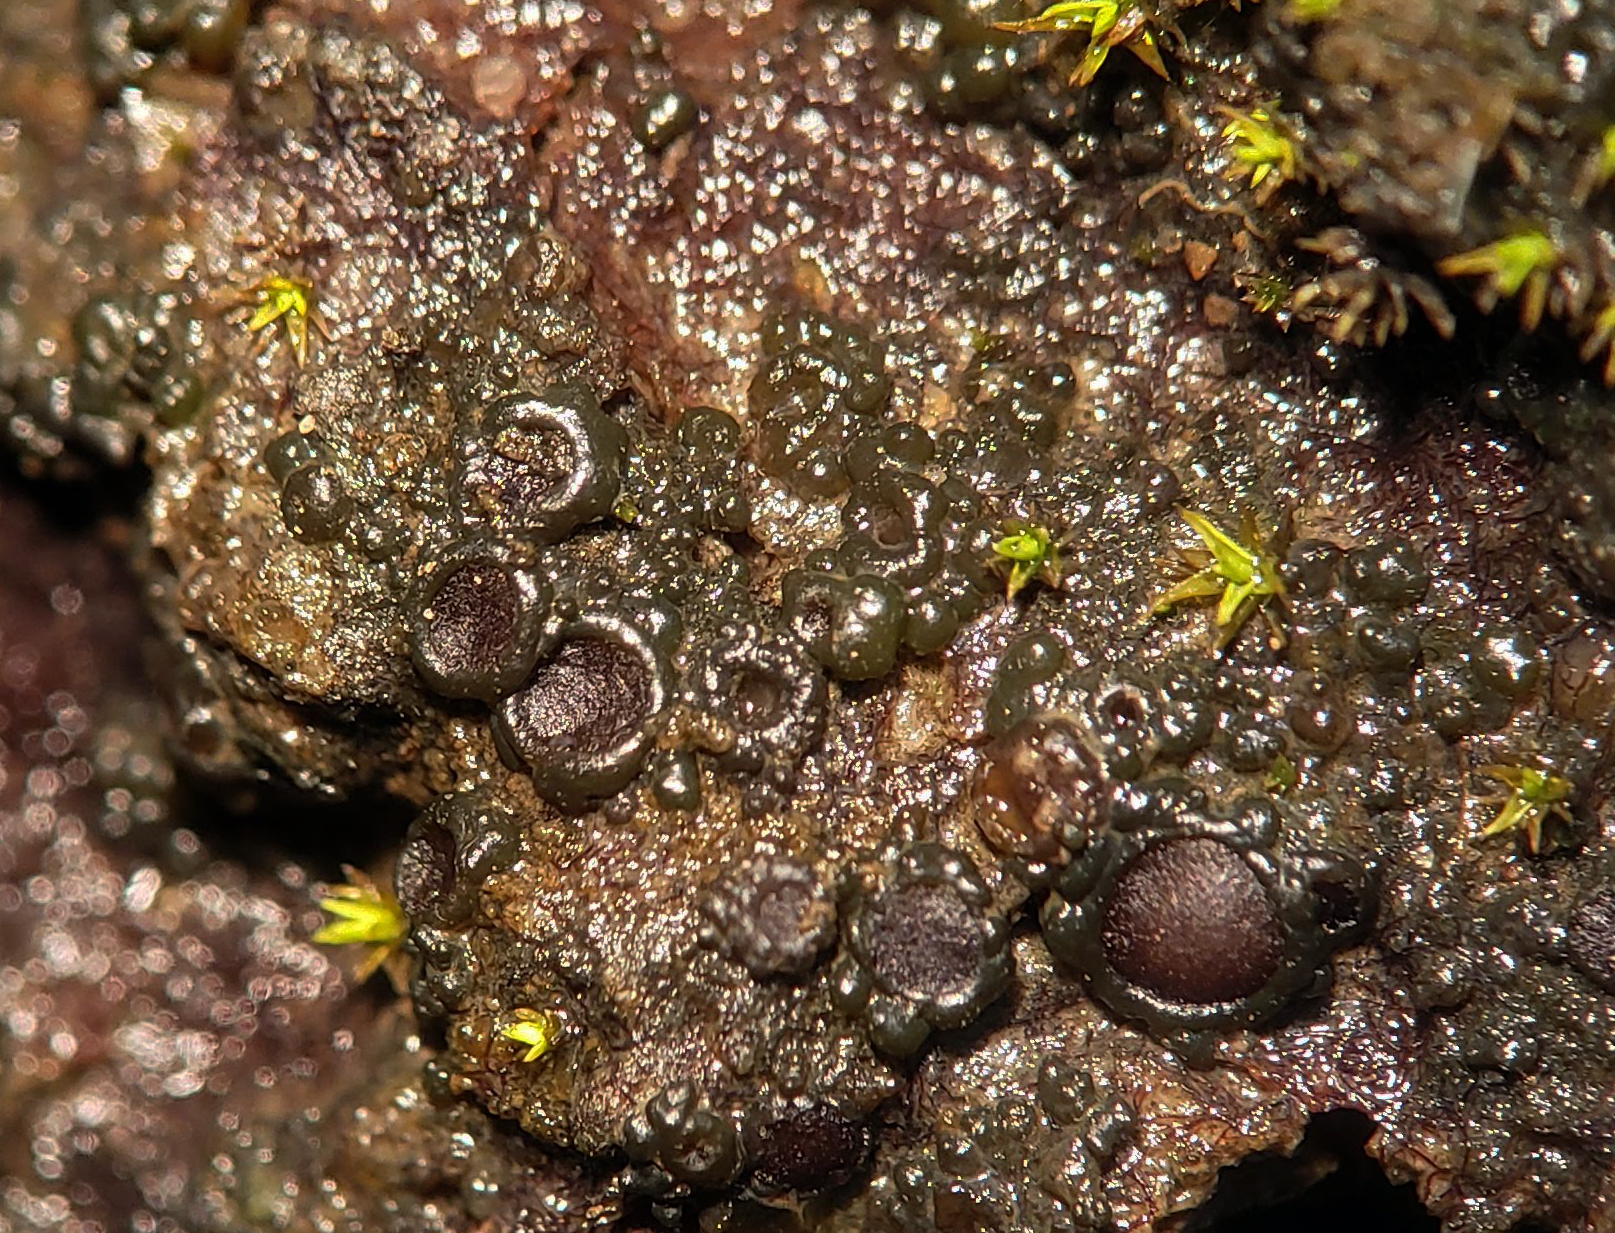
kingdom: Fungi
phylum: Ascomycota
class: Lecanoromycetes
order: Peltigerales
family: Collemataceae
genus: Enchylium
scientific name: Enchylium bachmanianum
